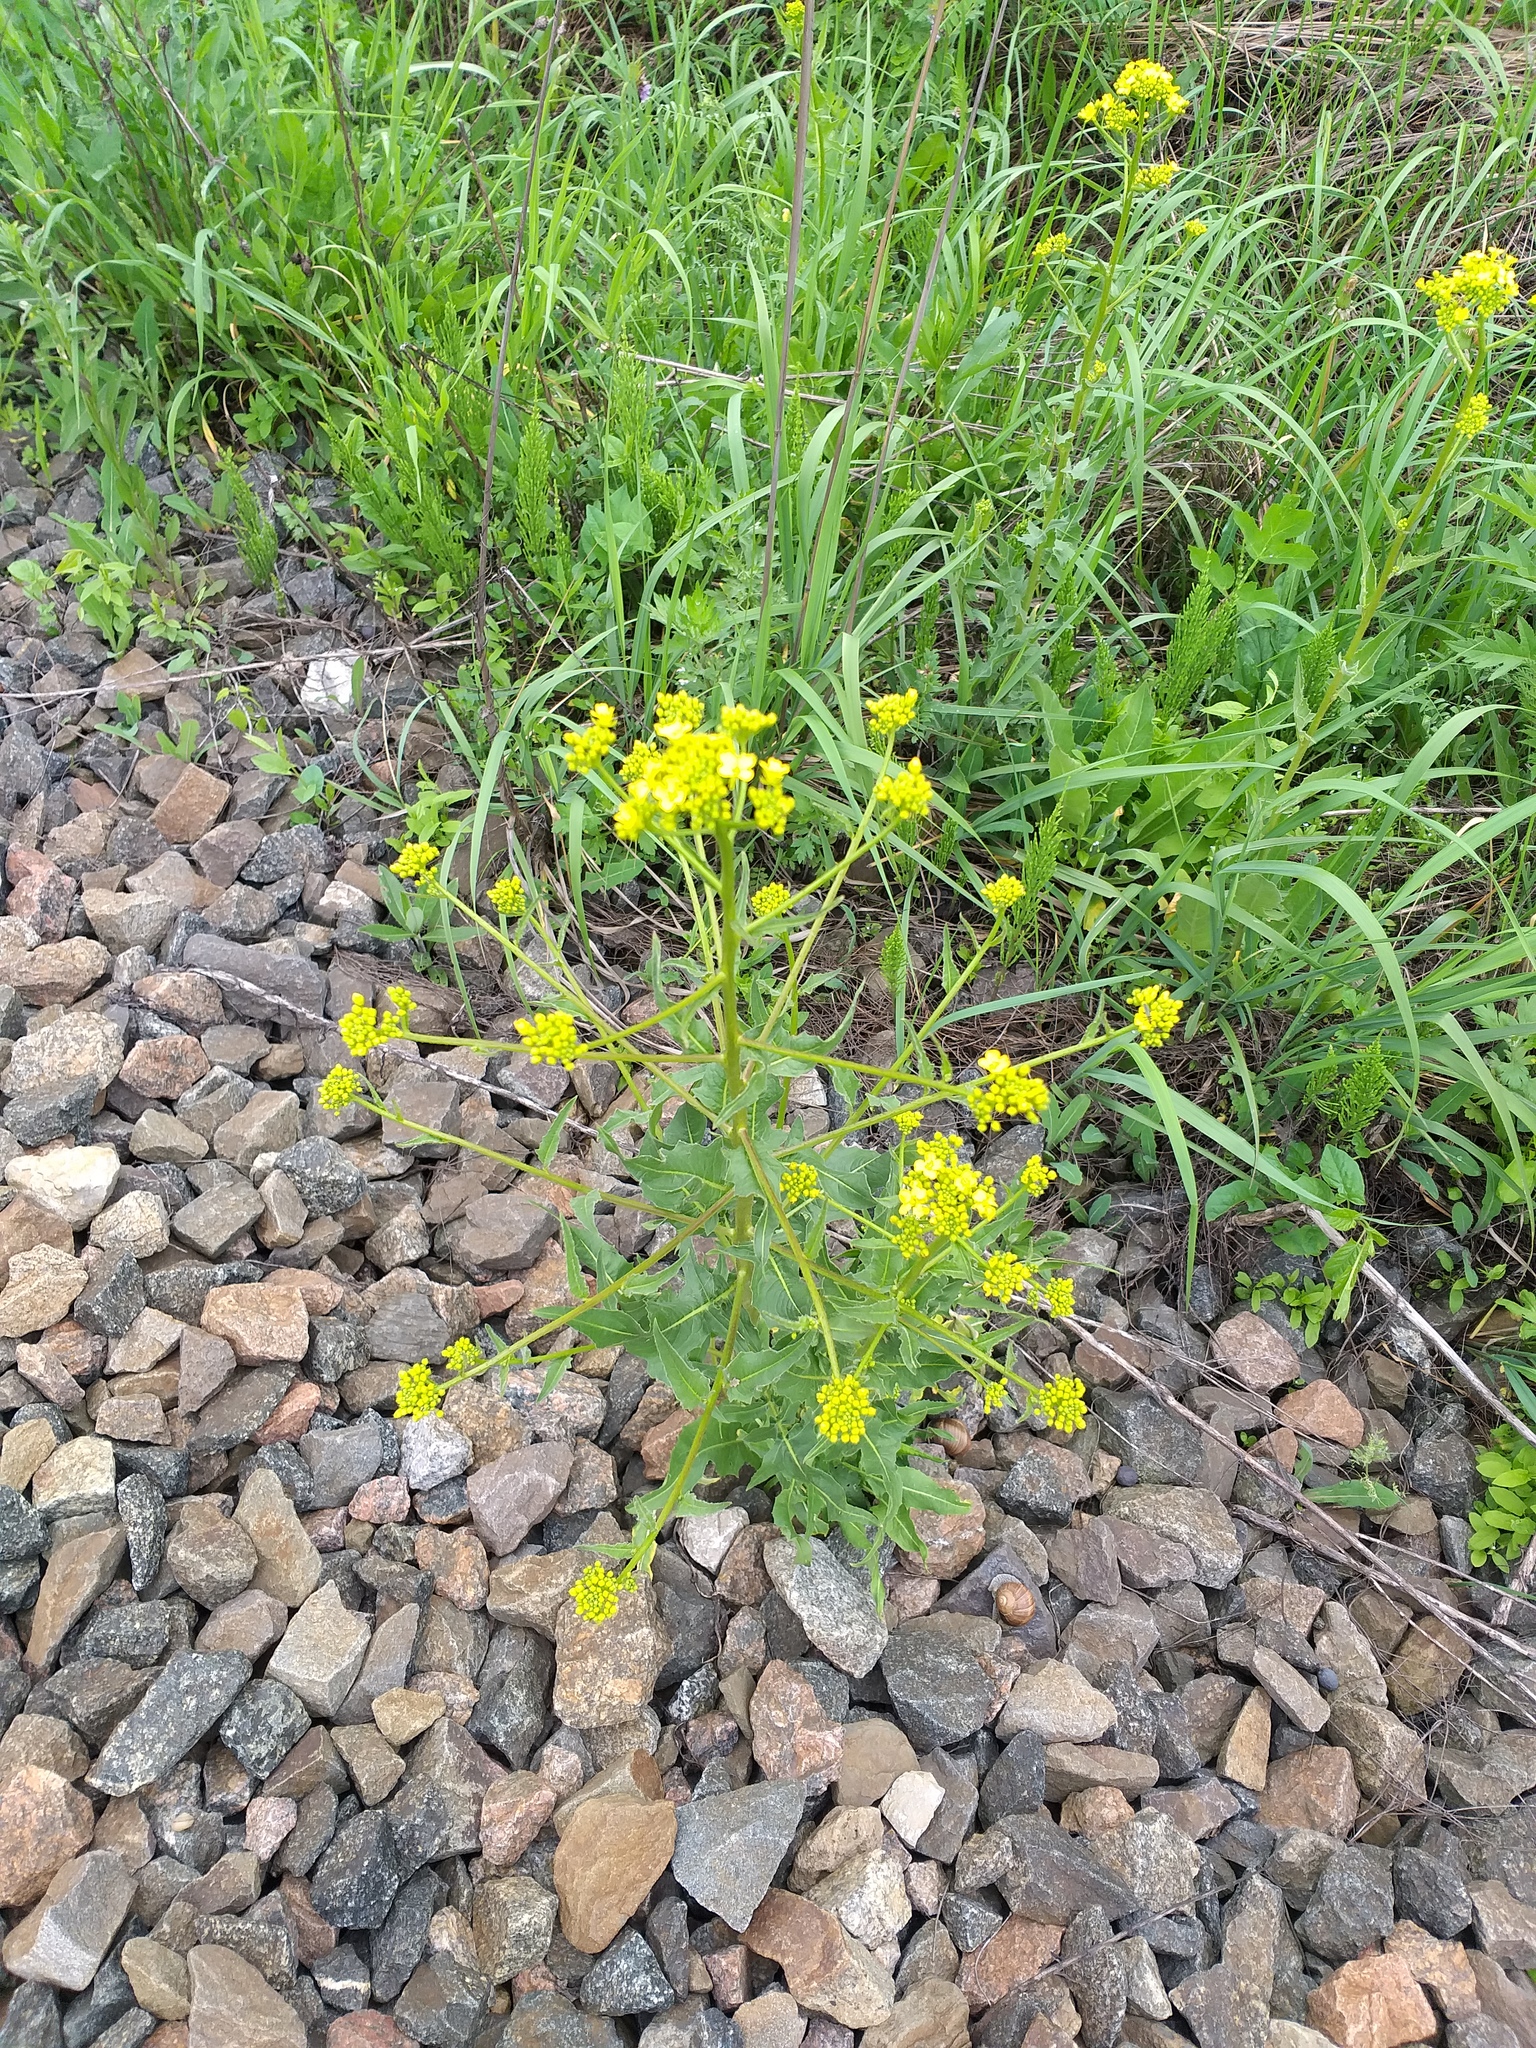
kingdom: Plantae
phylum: Tracheophyta
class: Magnoliopsida
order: Brassicales
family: Brassicaceae
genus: Bunias
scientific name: Bunias orientalis
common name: Warty-cabbage
